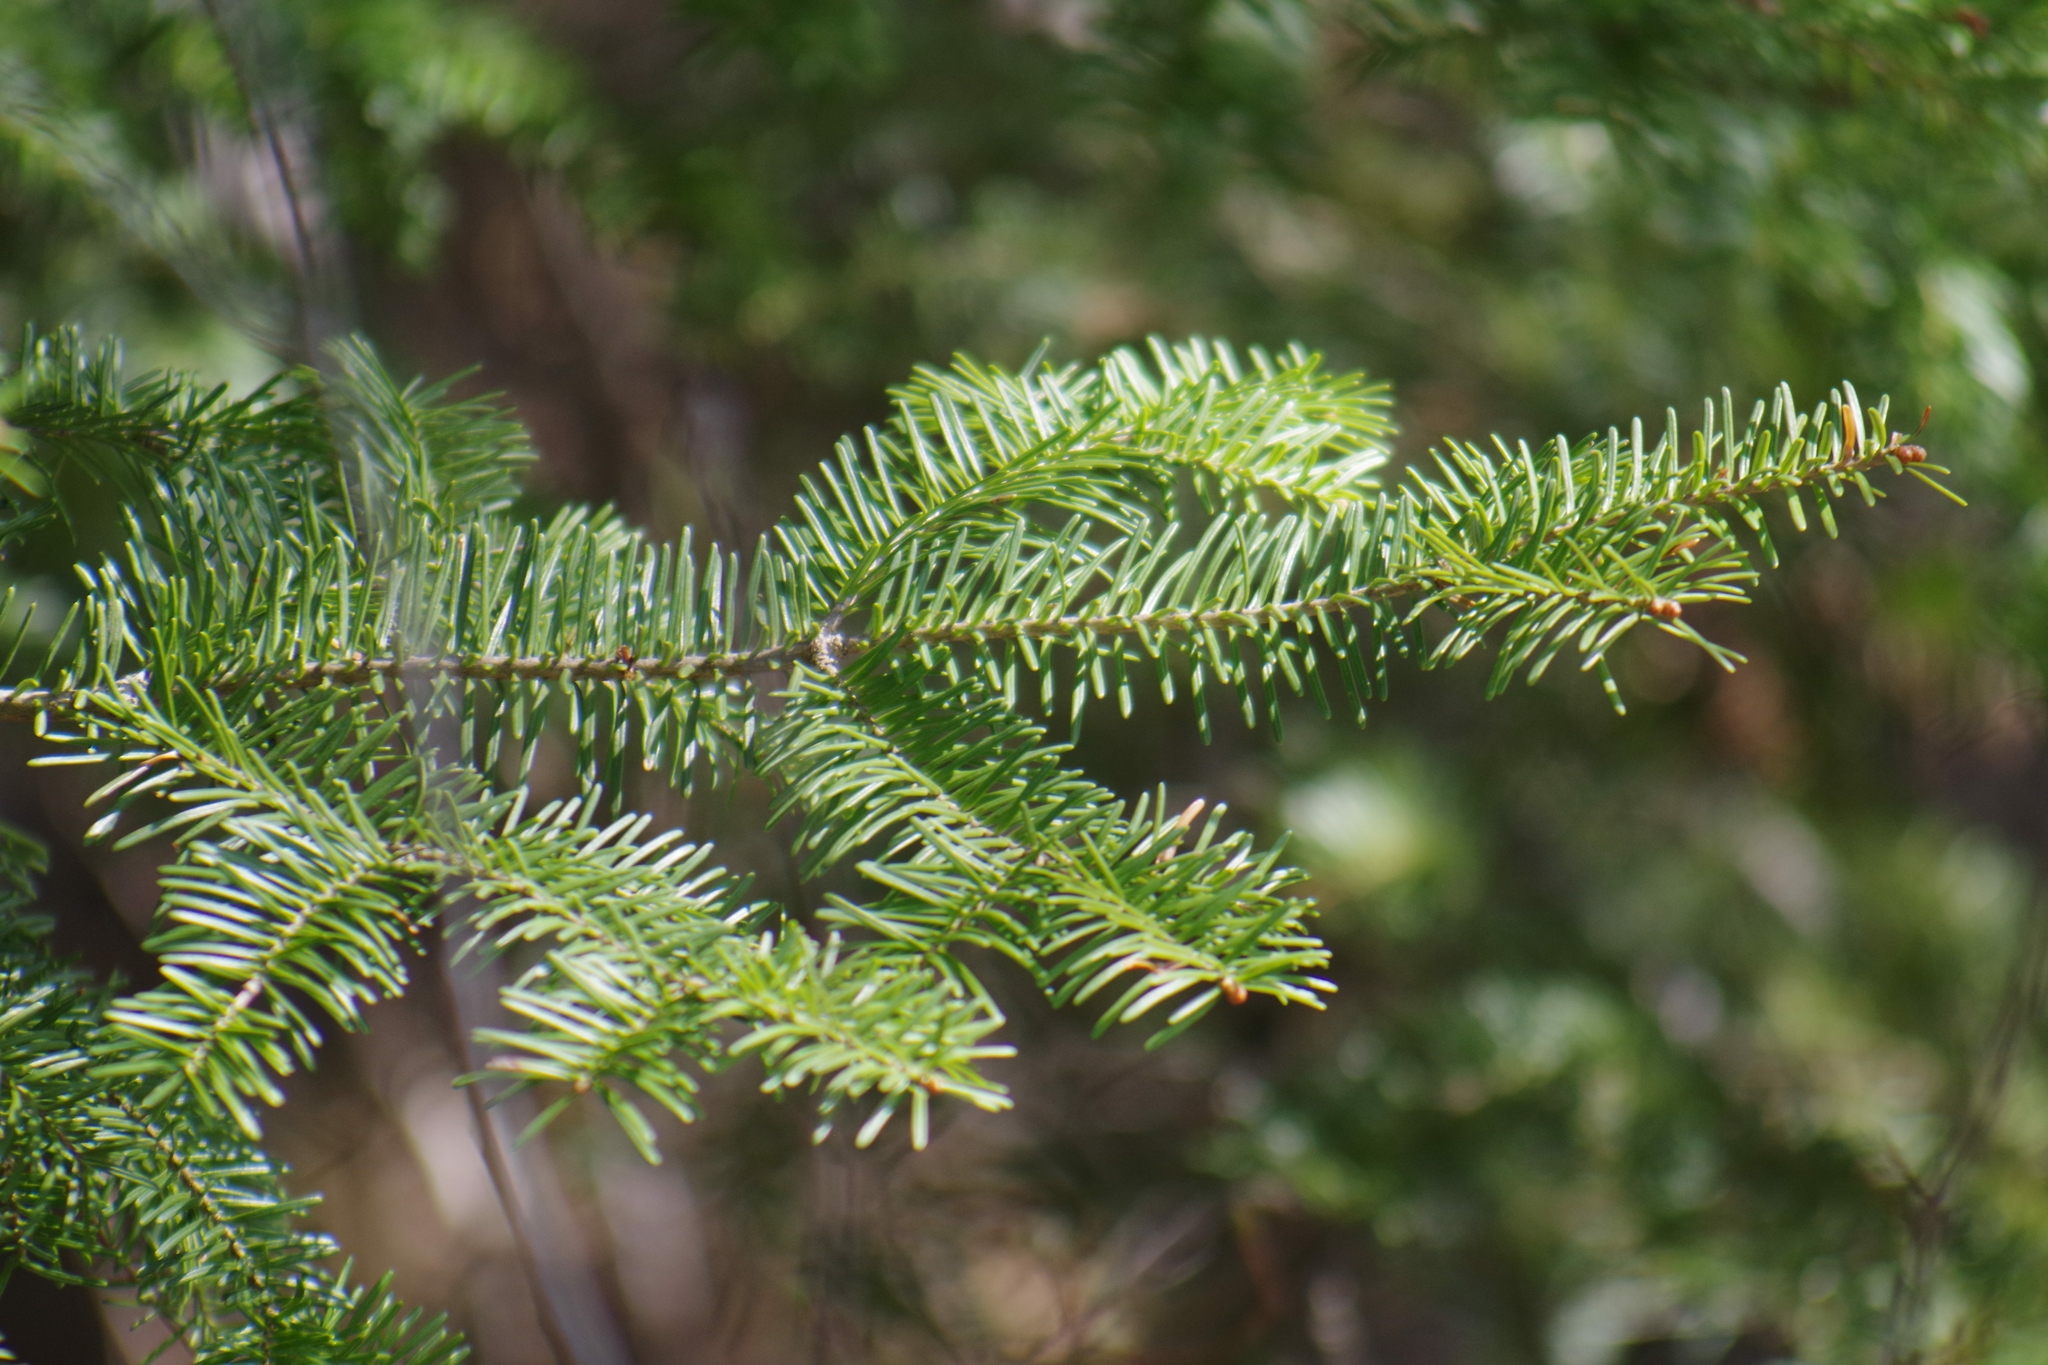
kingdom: Plantae
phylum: Tracheophyta
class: Pinopsida
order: Pinales
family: Pinaceae
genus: Abies
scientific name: Abies balsamea
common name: Balsam fir
